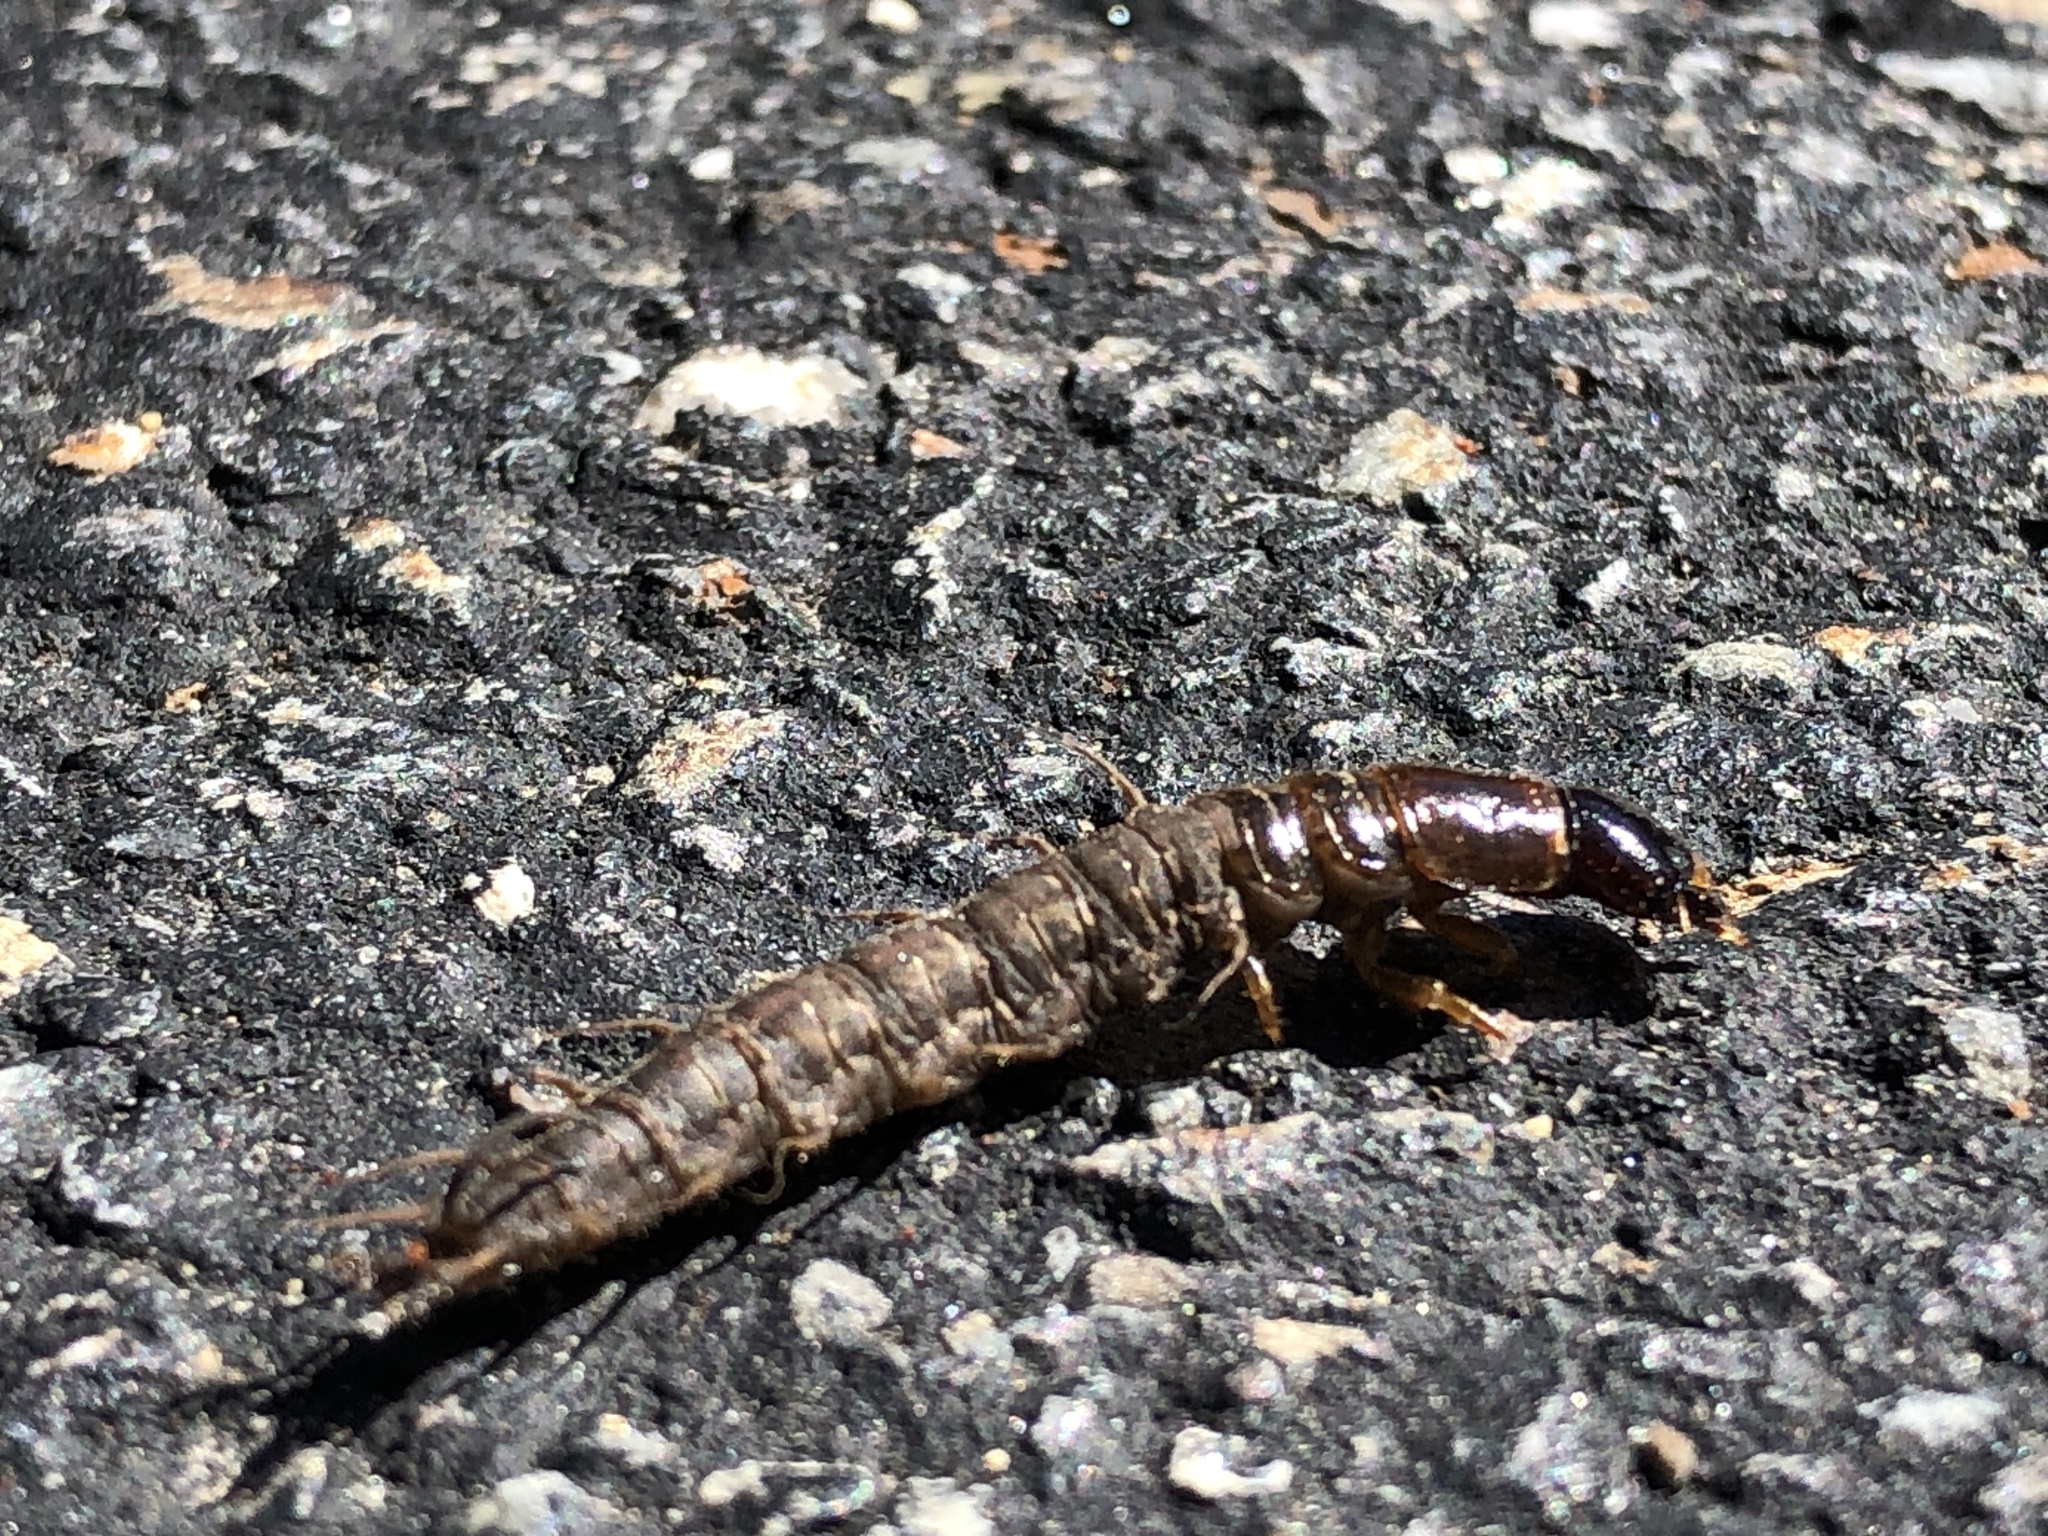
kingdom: Animalia
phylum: Arthropoda
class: Insecta
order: Megaloptera
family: Corydalidae
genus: Chauliodes
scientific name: Chauliodes pectinicornis
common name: Summer fishfly
